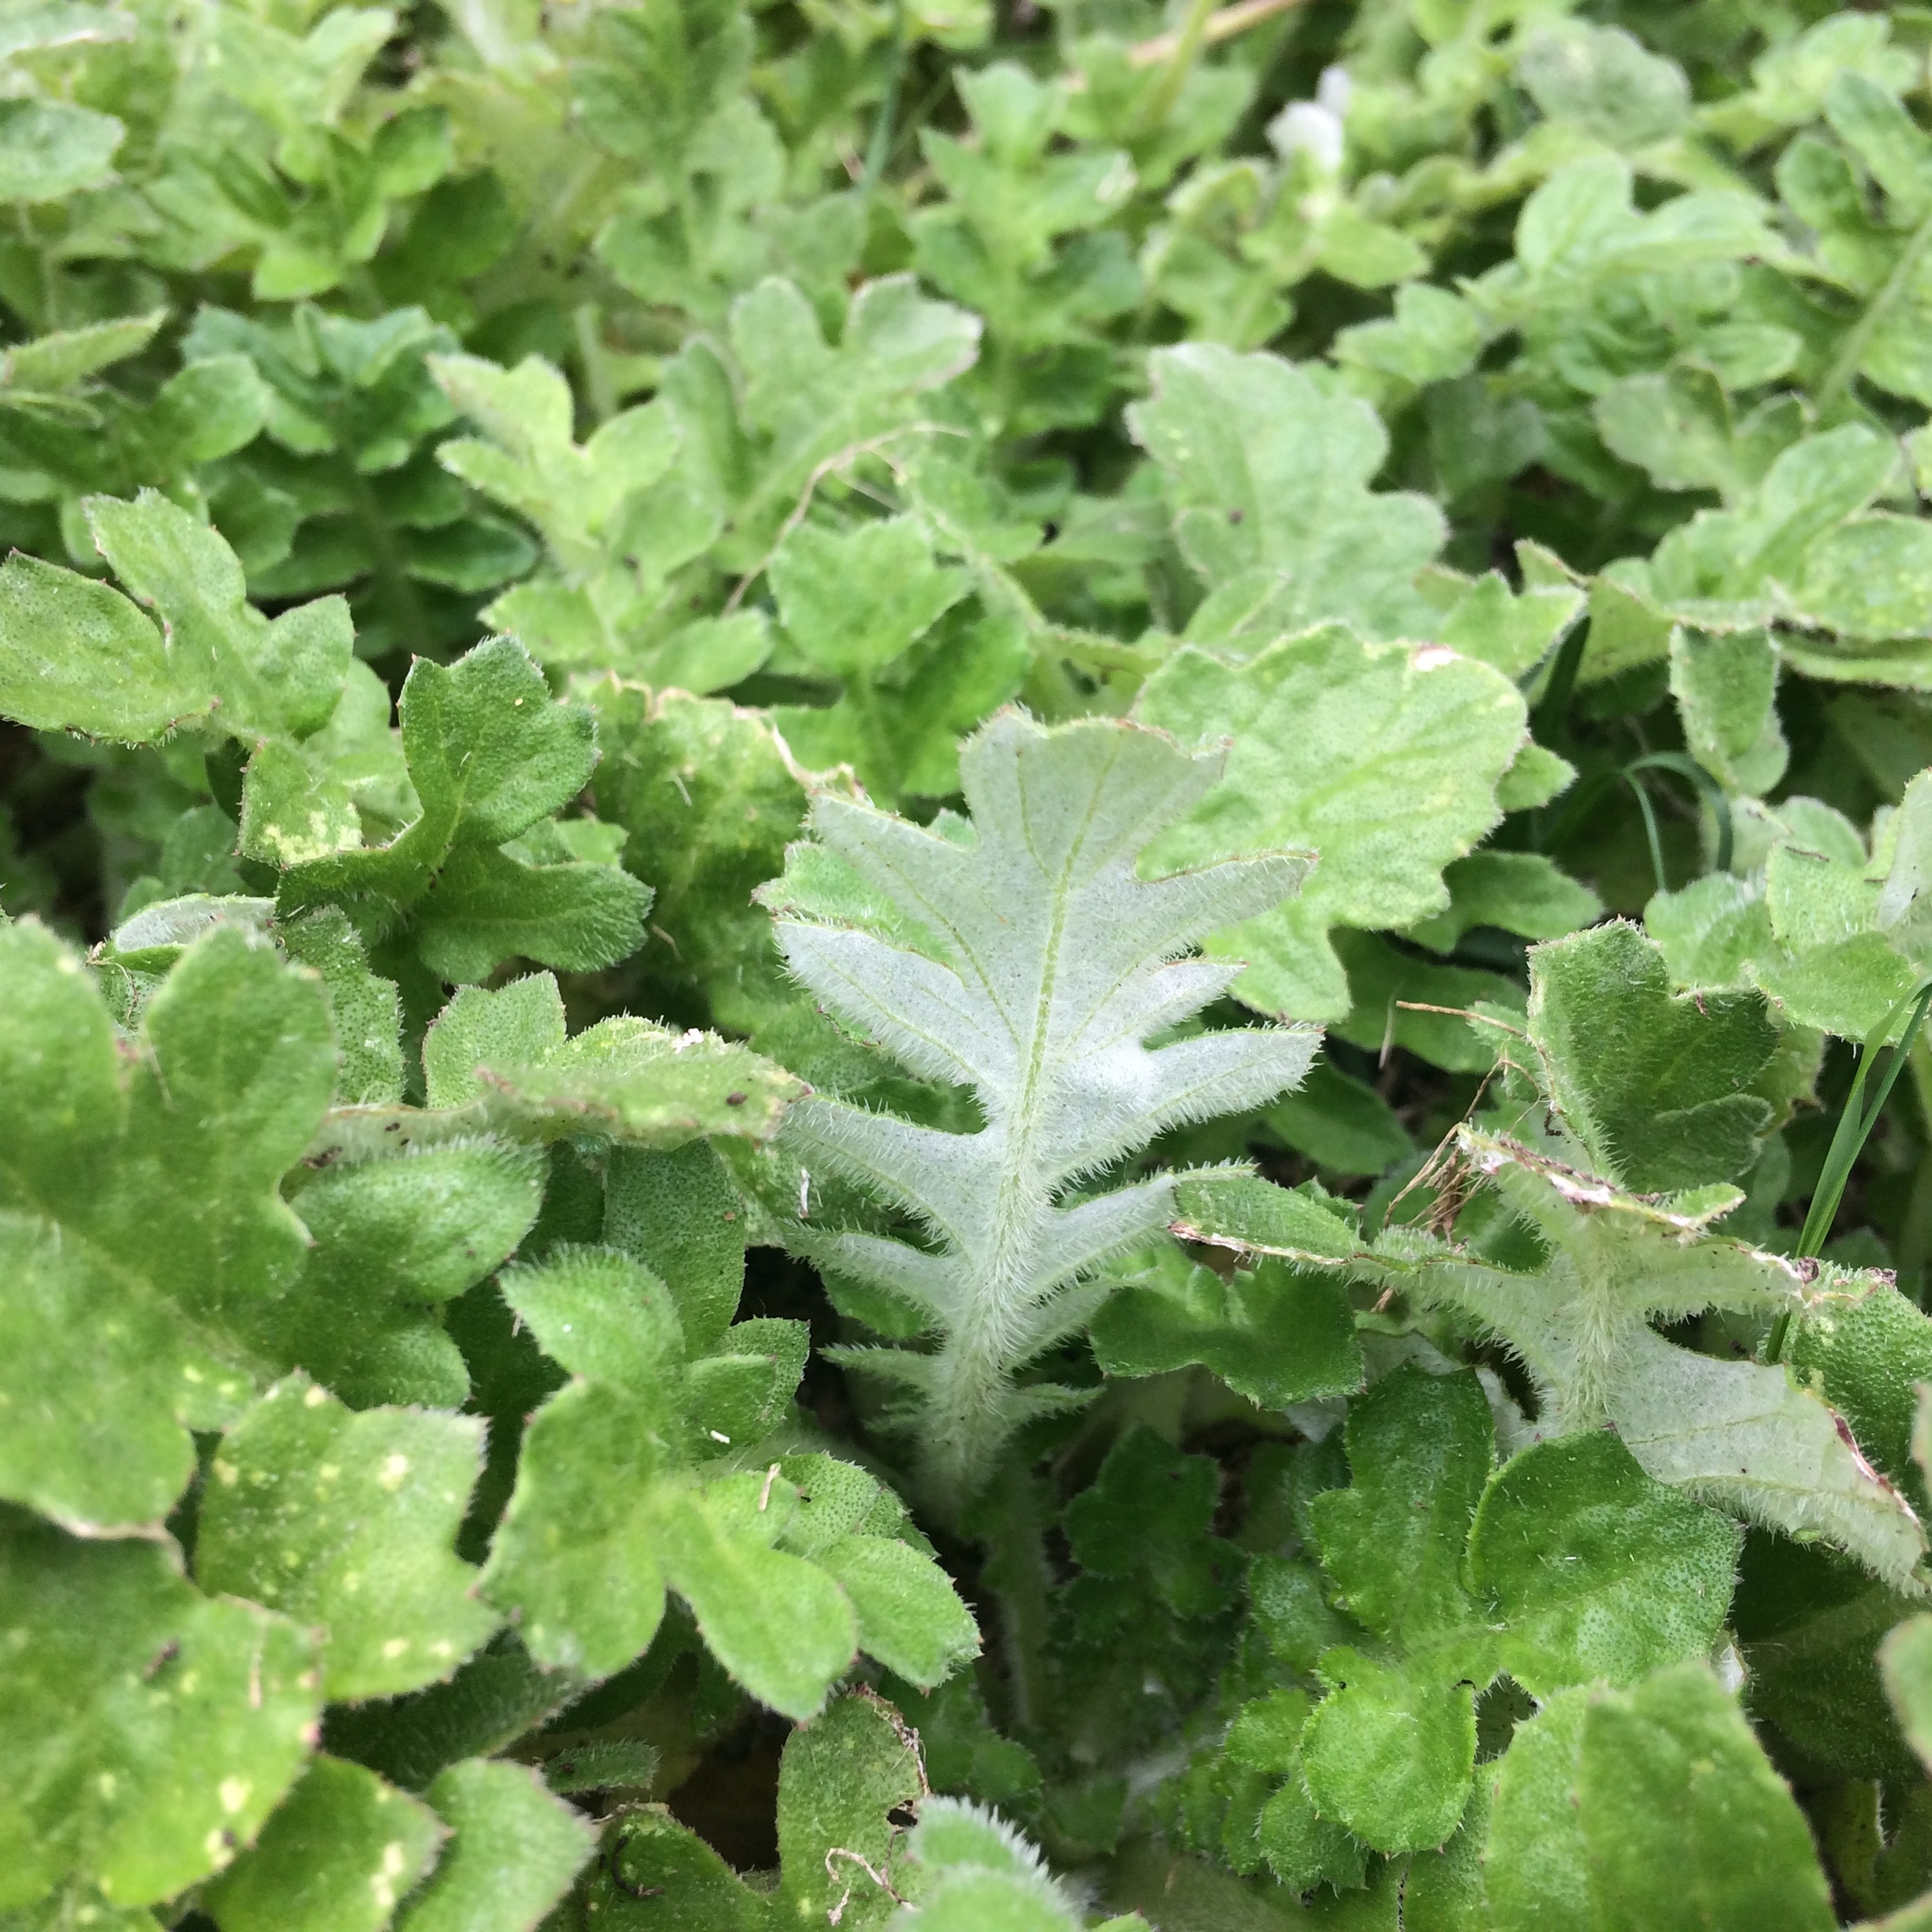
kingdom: Plantae
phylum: Tracheophyta
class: Magnoliopsida
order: Asterales
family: Asteraceae
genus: Arctotheca
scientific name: Arctotheca prostrata
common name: Capeweed
